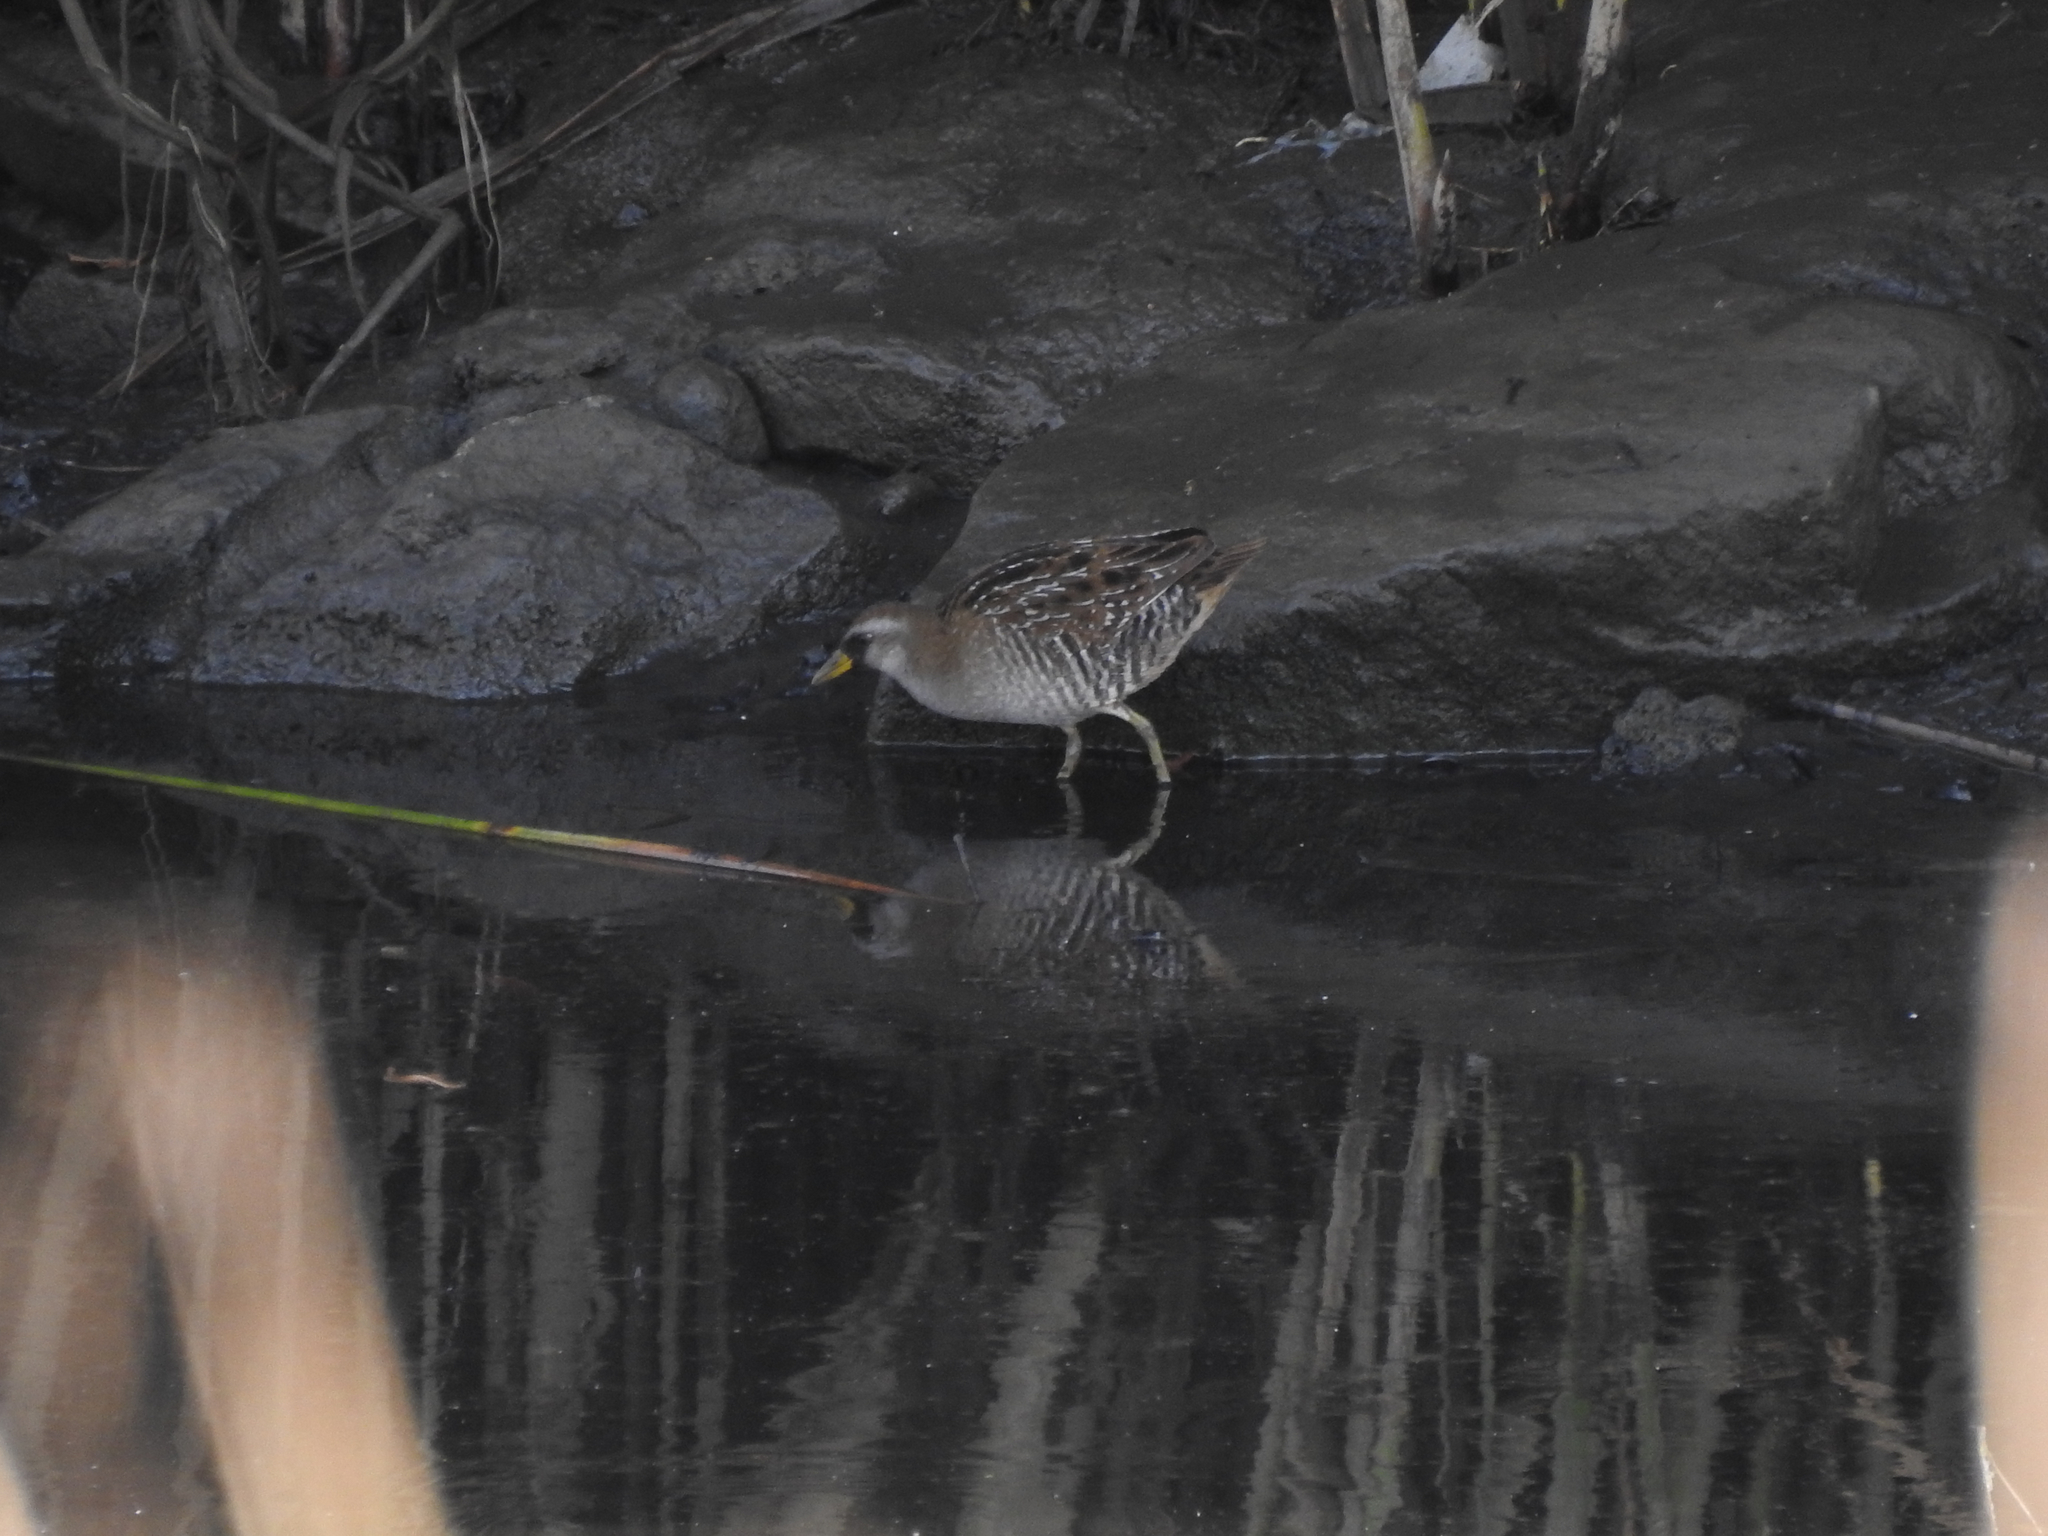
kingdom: Animalia
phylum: Chordata
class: Aves
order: Gruiformes
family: Rallidae
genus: Porzana
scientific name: Porzana carolina
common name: Sora
